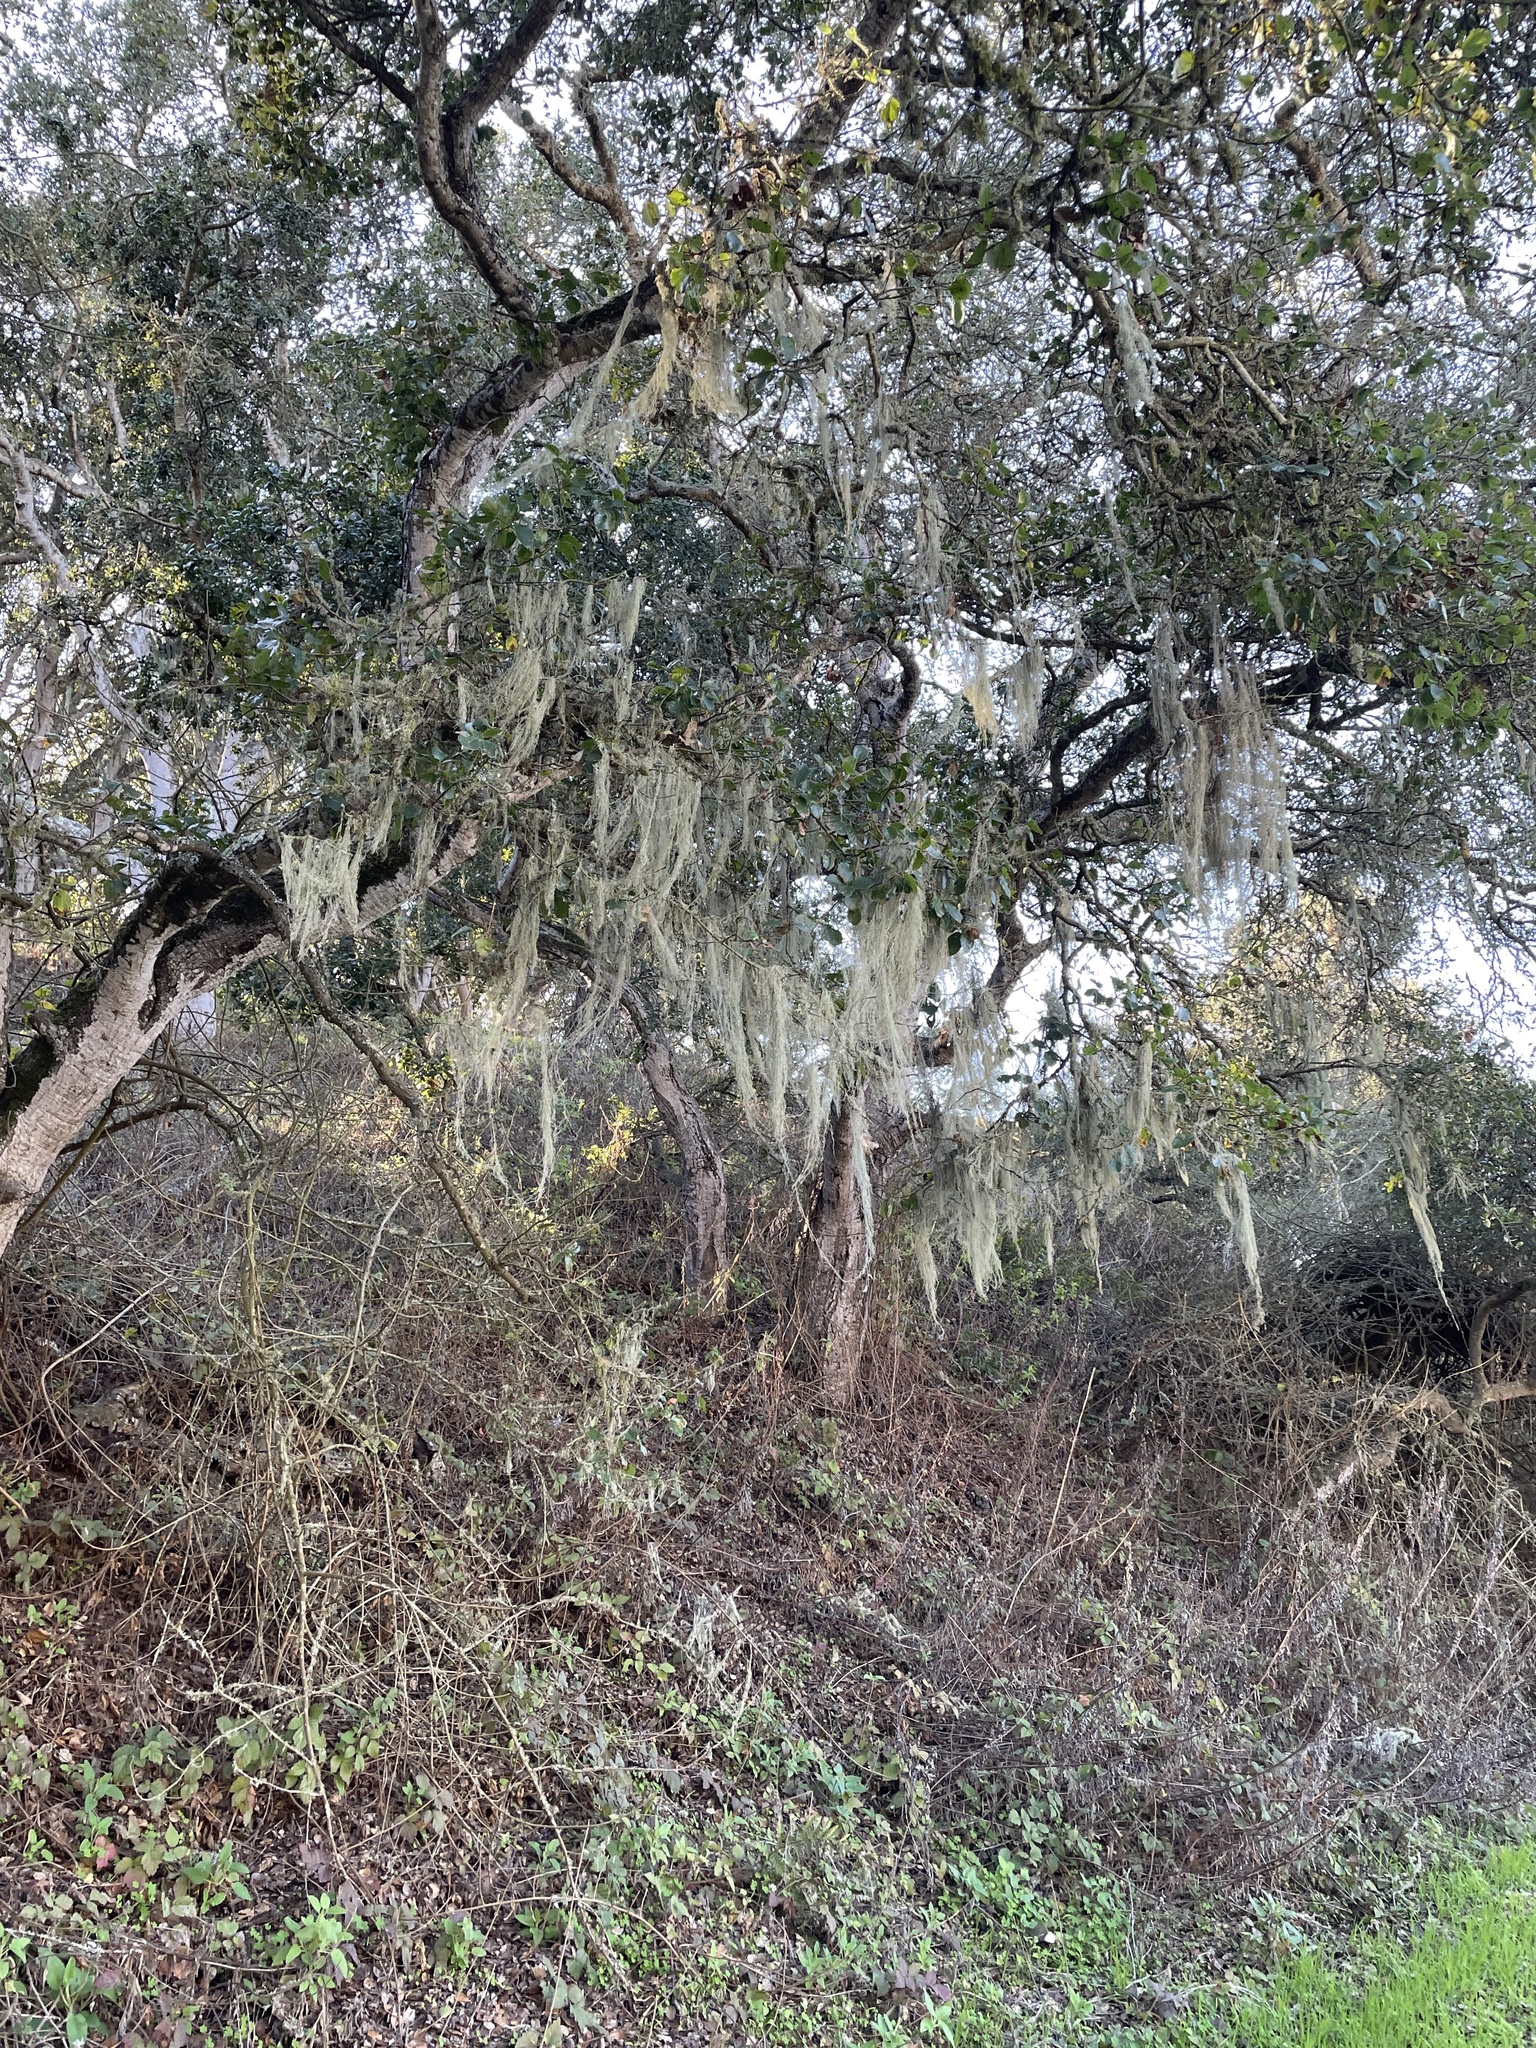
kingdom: Fungi
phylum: Ascomycota
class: Lecanoromycetes
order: Lecanorales
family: Ramalinaceae
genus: Ramalina
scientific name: Ramalina menziesii
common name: Lace lichen
